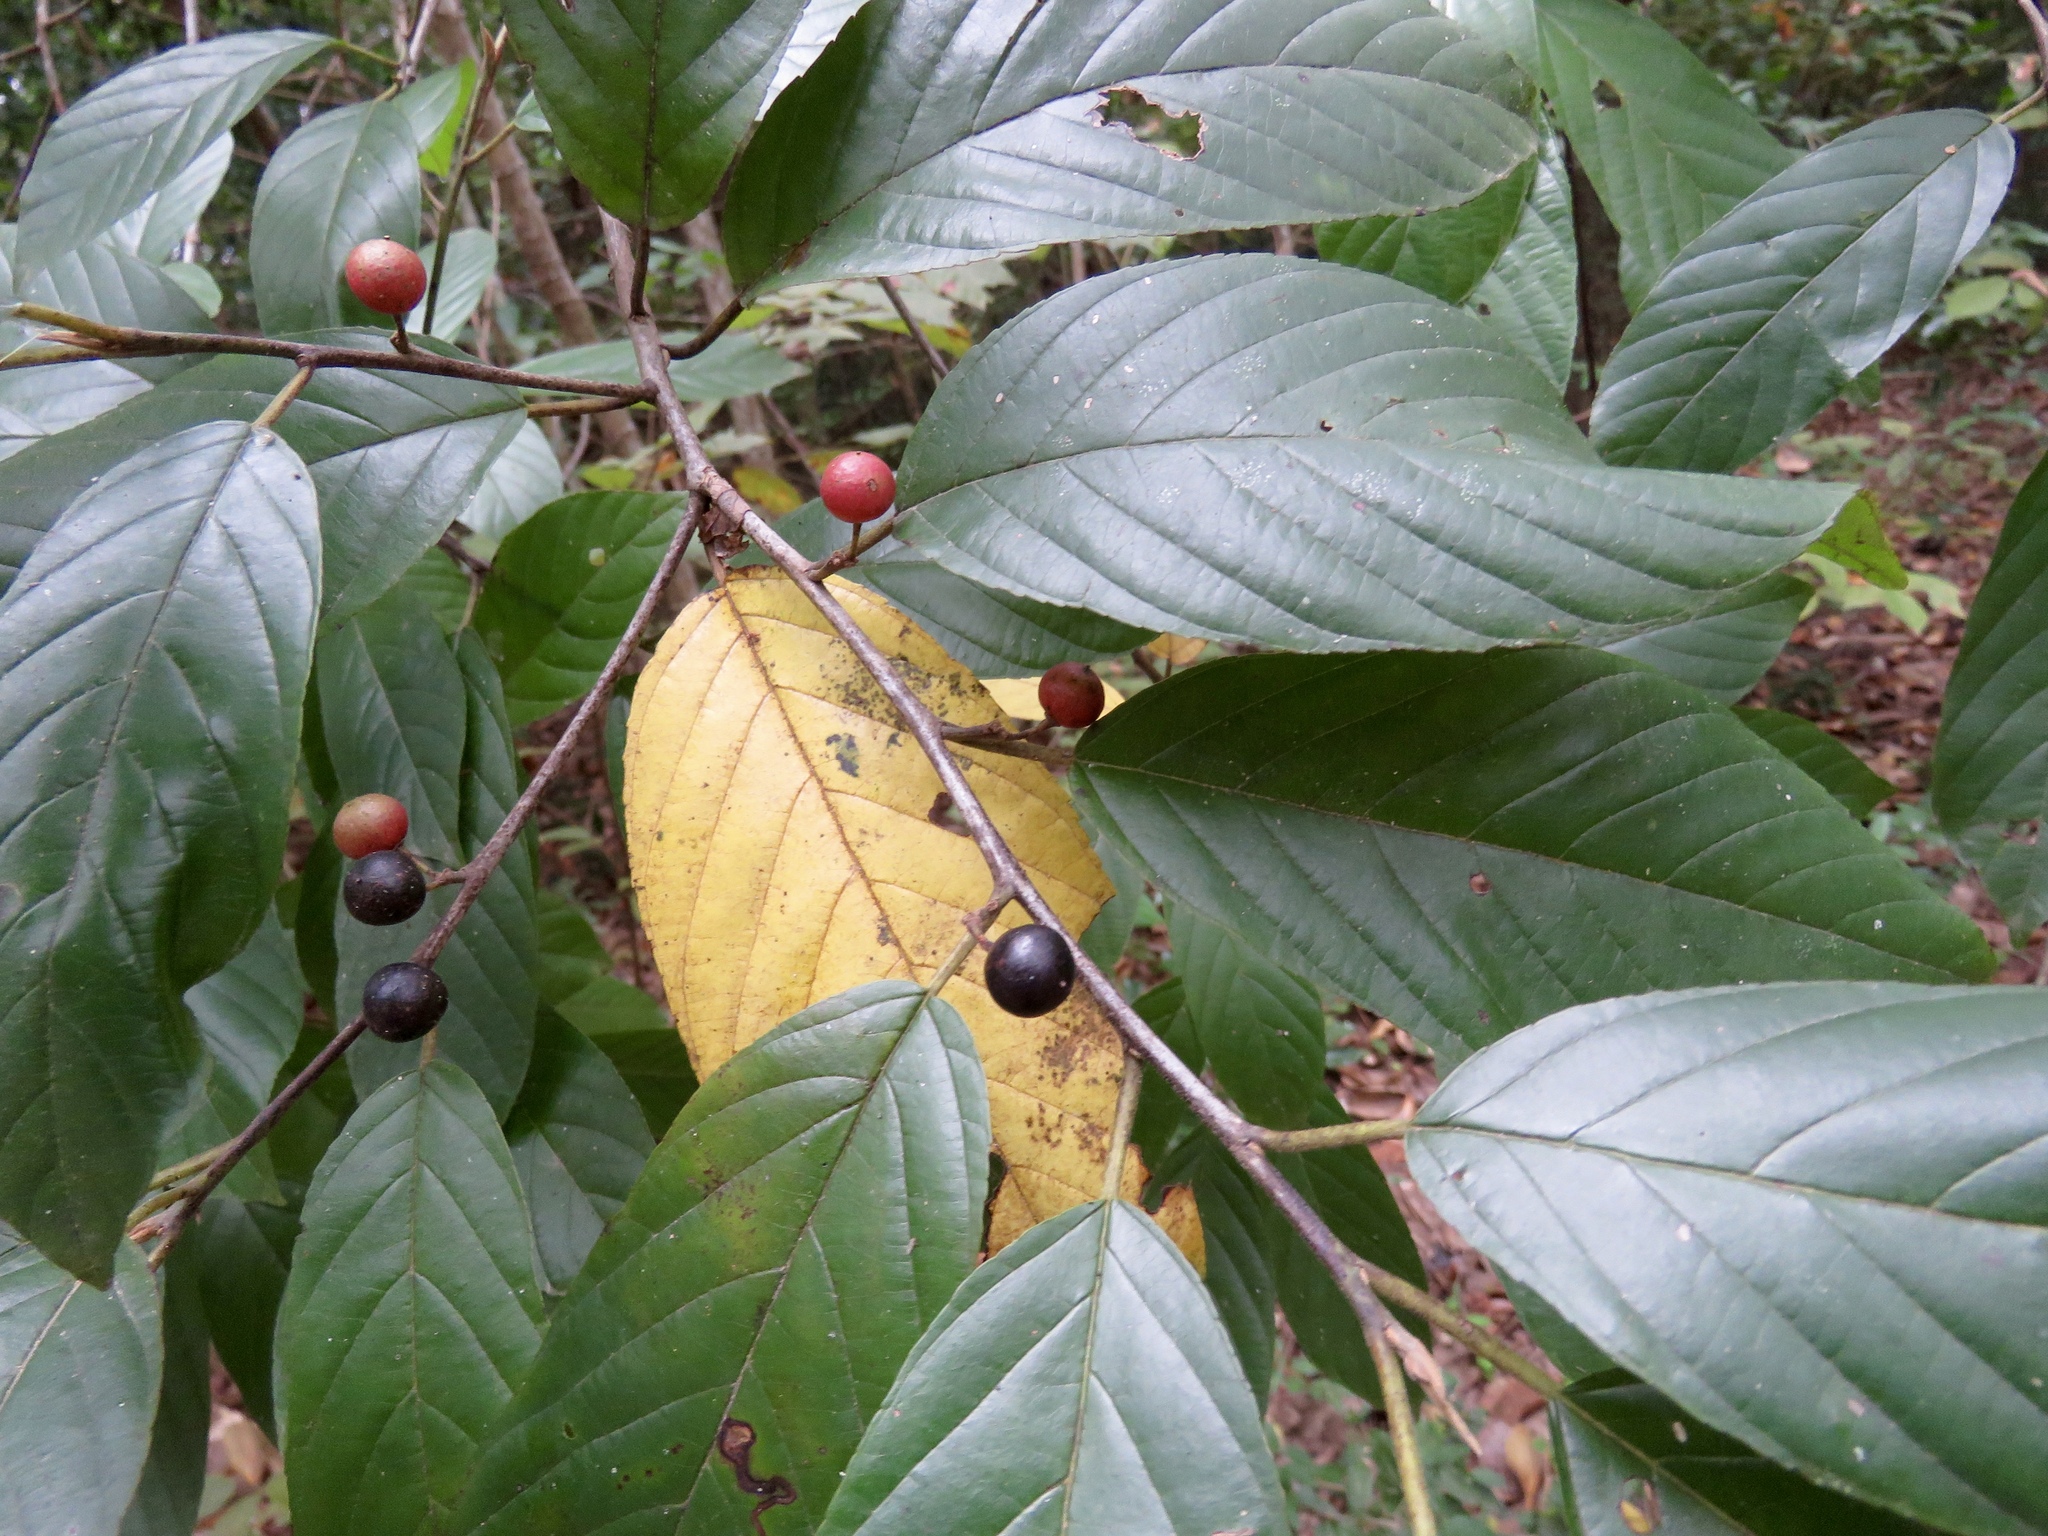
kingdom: Plantae
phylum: Tracheophyta
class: Magnoliopsida
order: Rosales
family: Rhamnaceae
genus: Frangula
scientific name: Frangula caroliniana
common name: Carolina buckthorn
